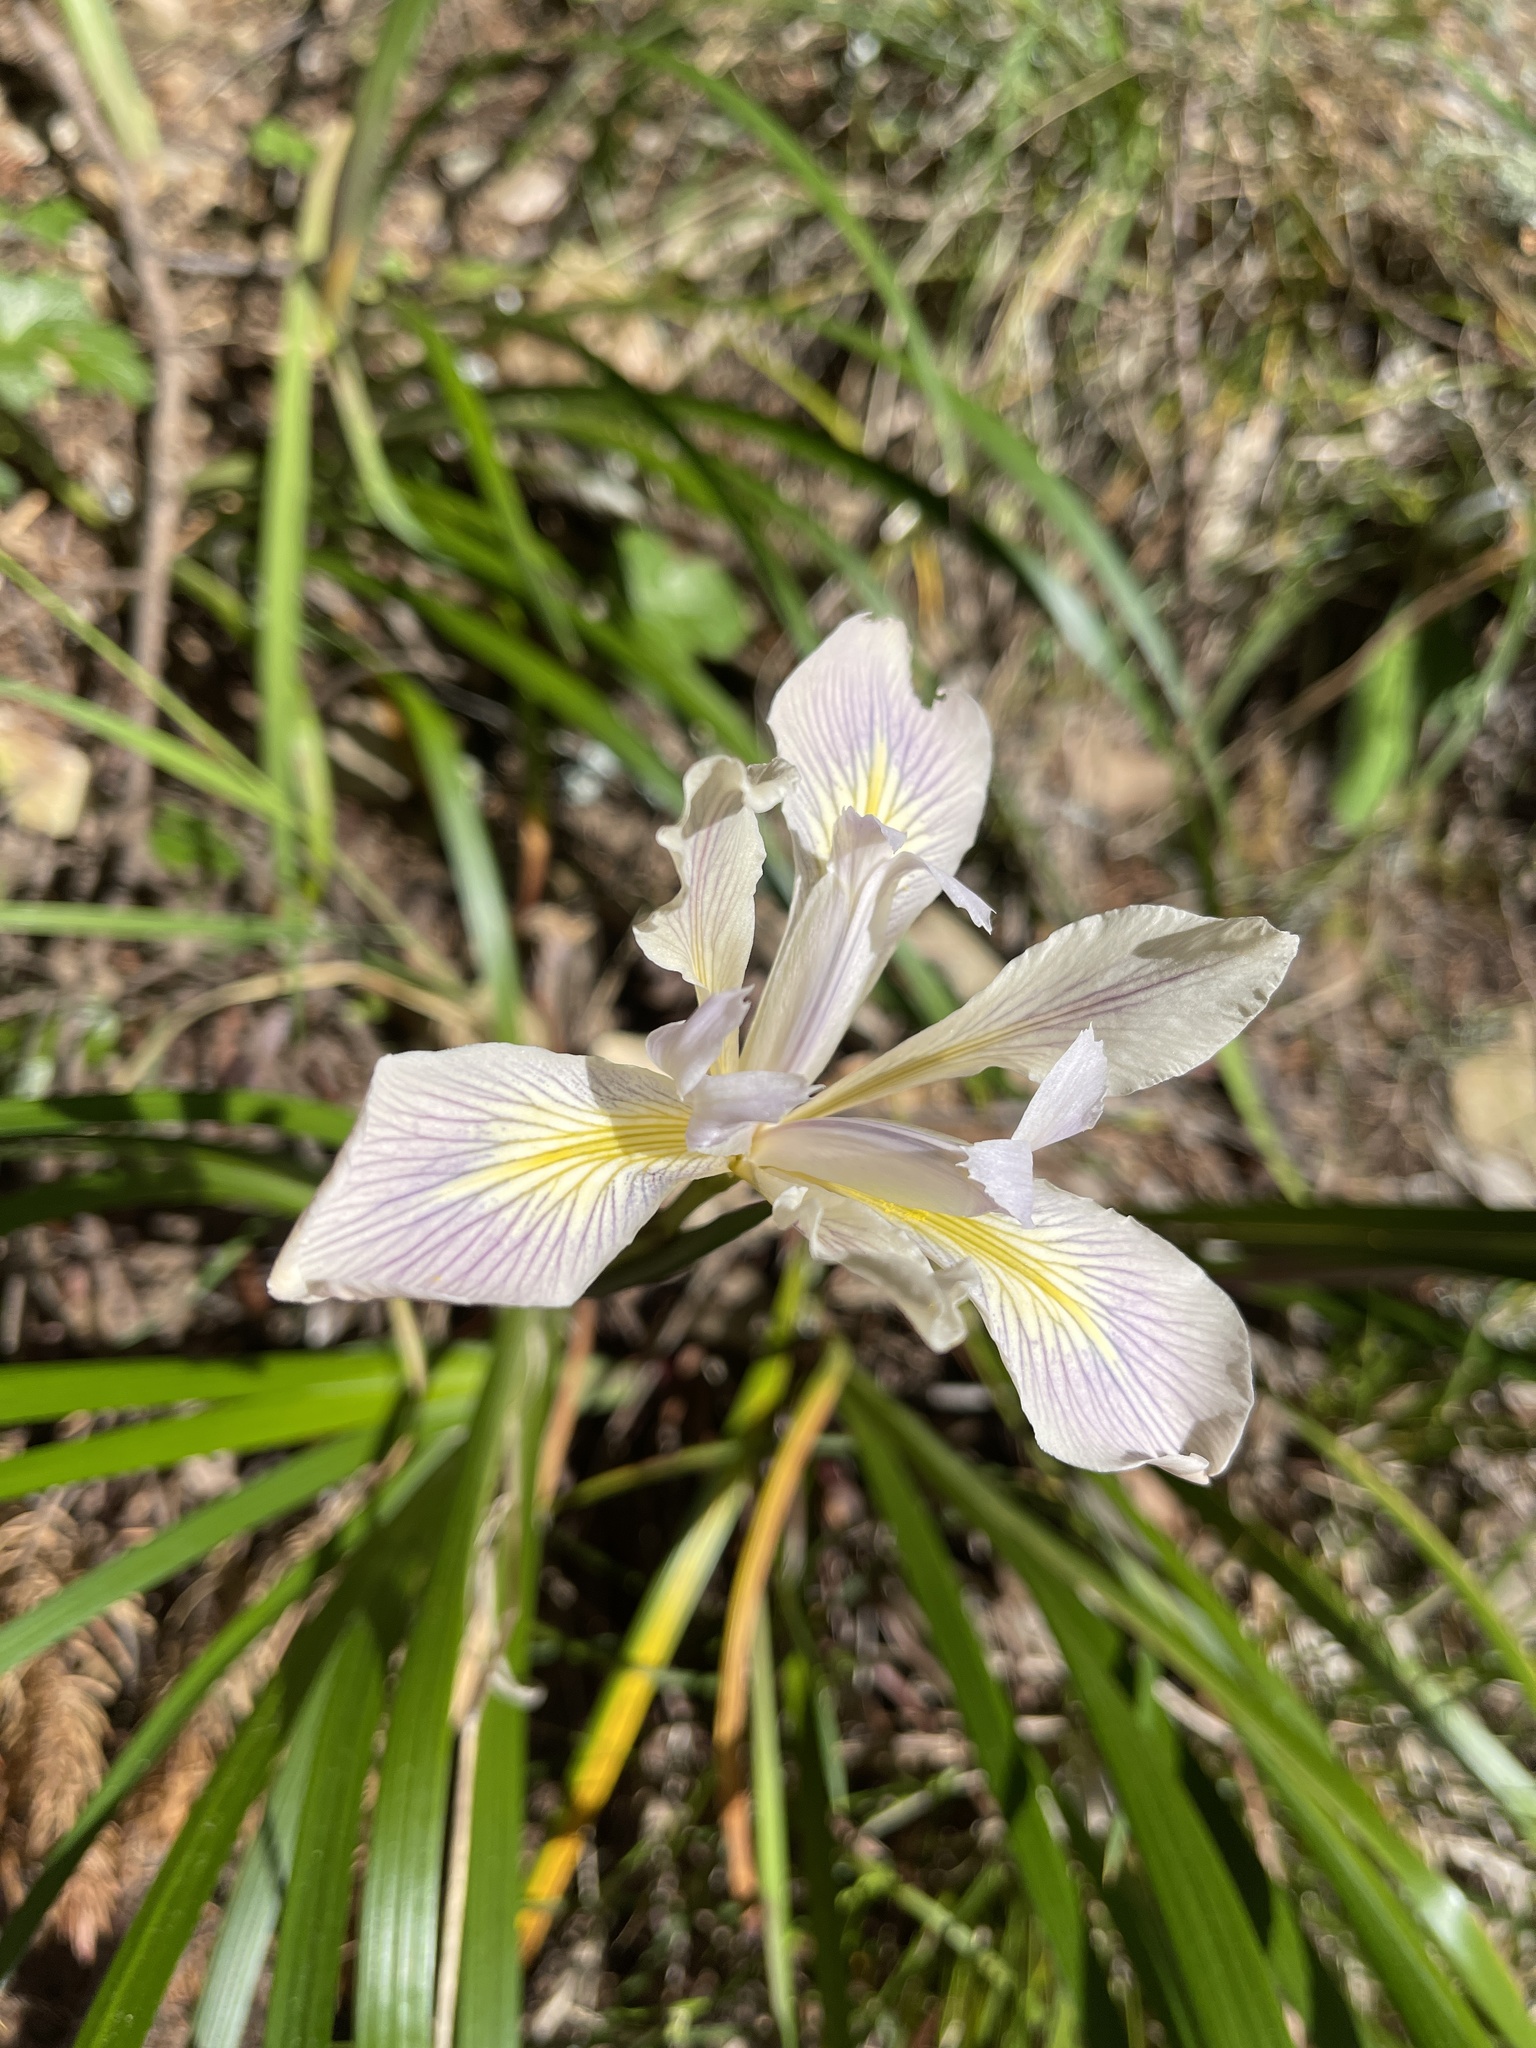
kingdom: Plantae
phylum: Tracheophyta
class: Liliopsida
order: Asparagales
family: Iridaceae
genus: Iris
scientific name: Iris douglasiana
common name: Marin iris
